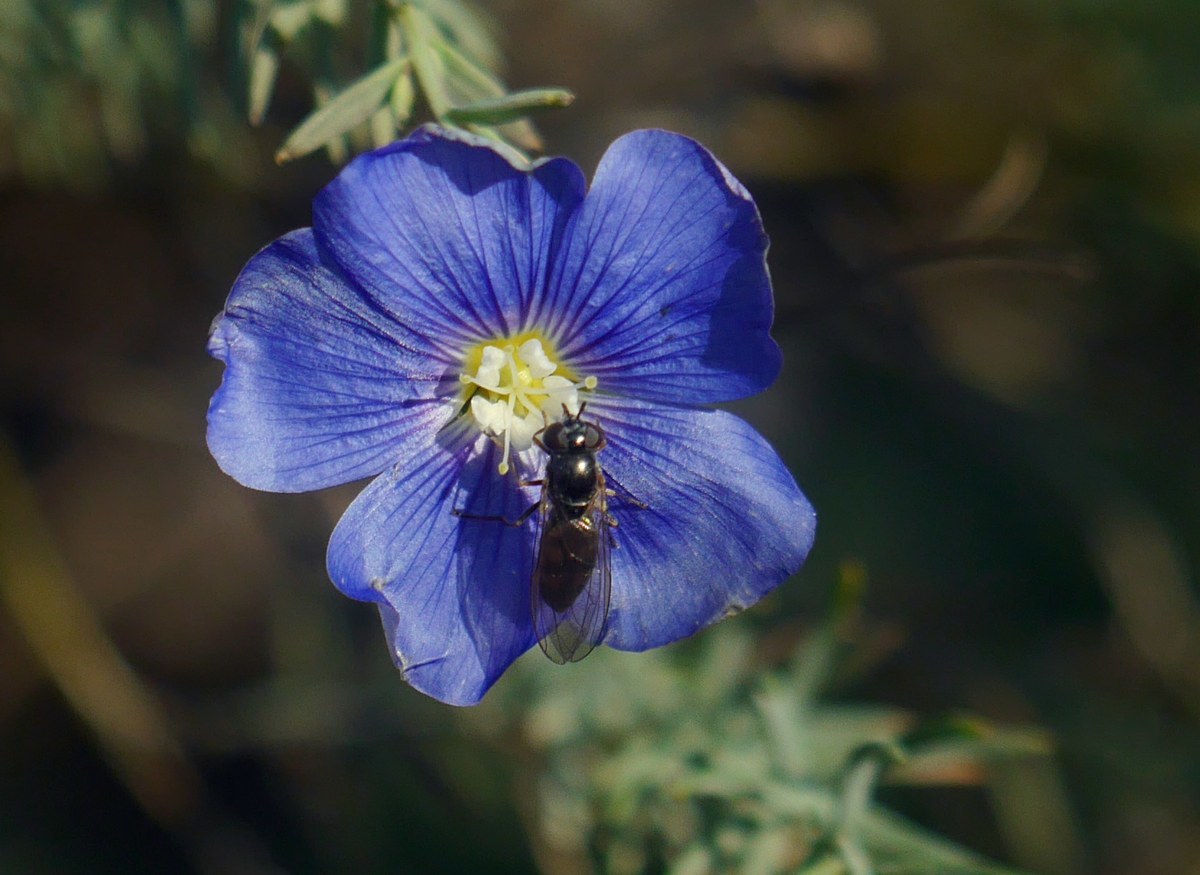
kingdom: Animalia
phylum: Arthropoda
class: Insecta
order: Diptera
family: Syrphidae
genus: Melanostoma
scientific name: Melanostoma scalare
